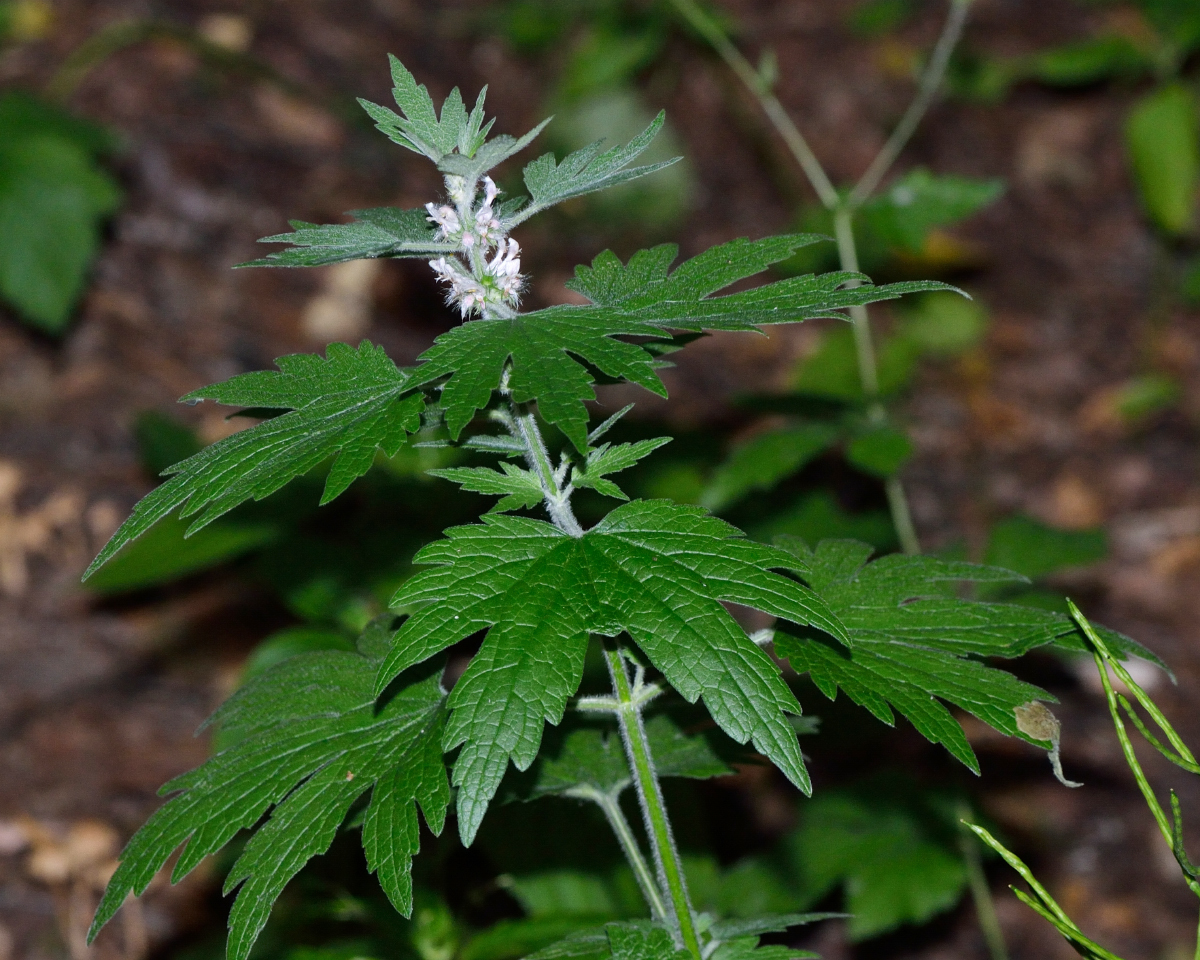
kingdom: Plantae
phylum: Tracheophyta
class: Magnoliopsida
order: Lamiales
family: Lamiaceae
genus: Leonurus
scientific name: Leonurus quinquelobatus
